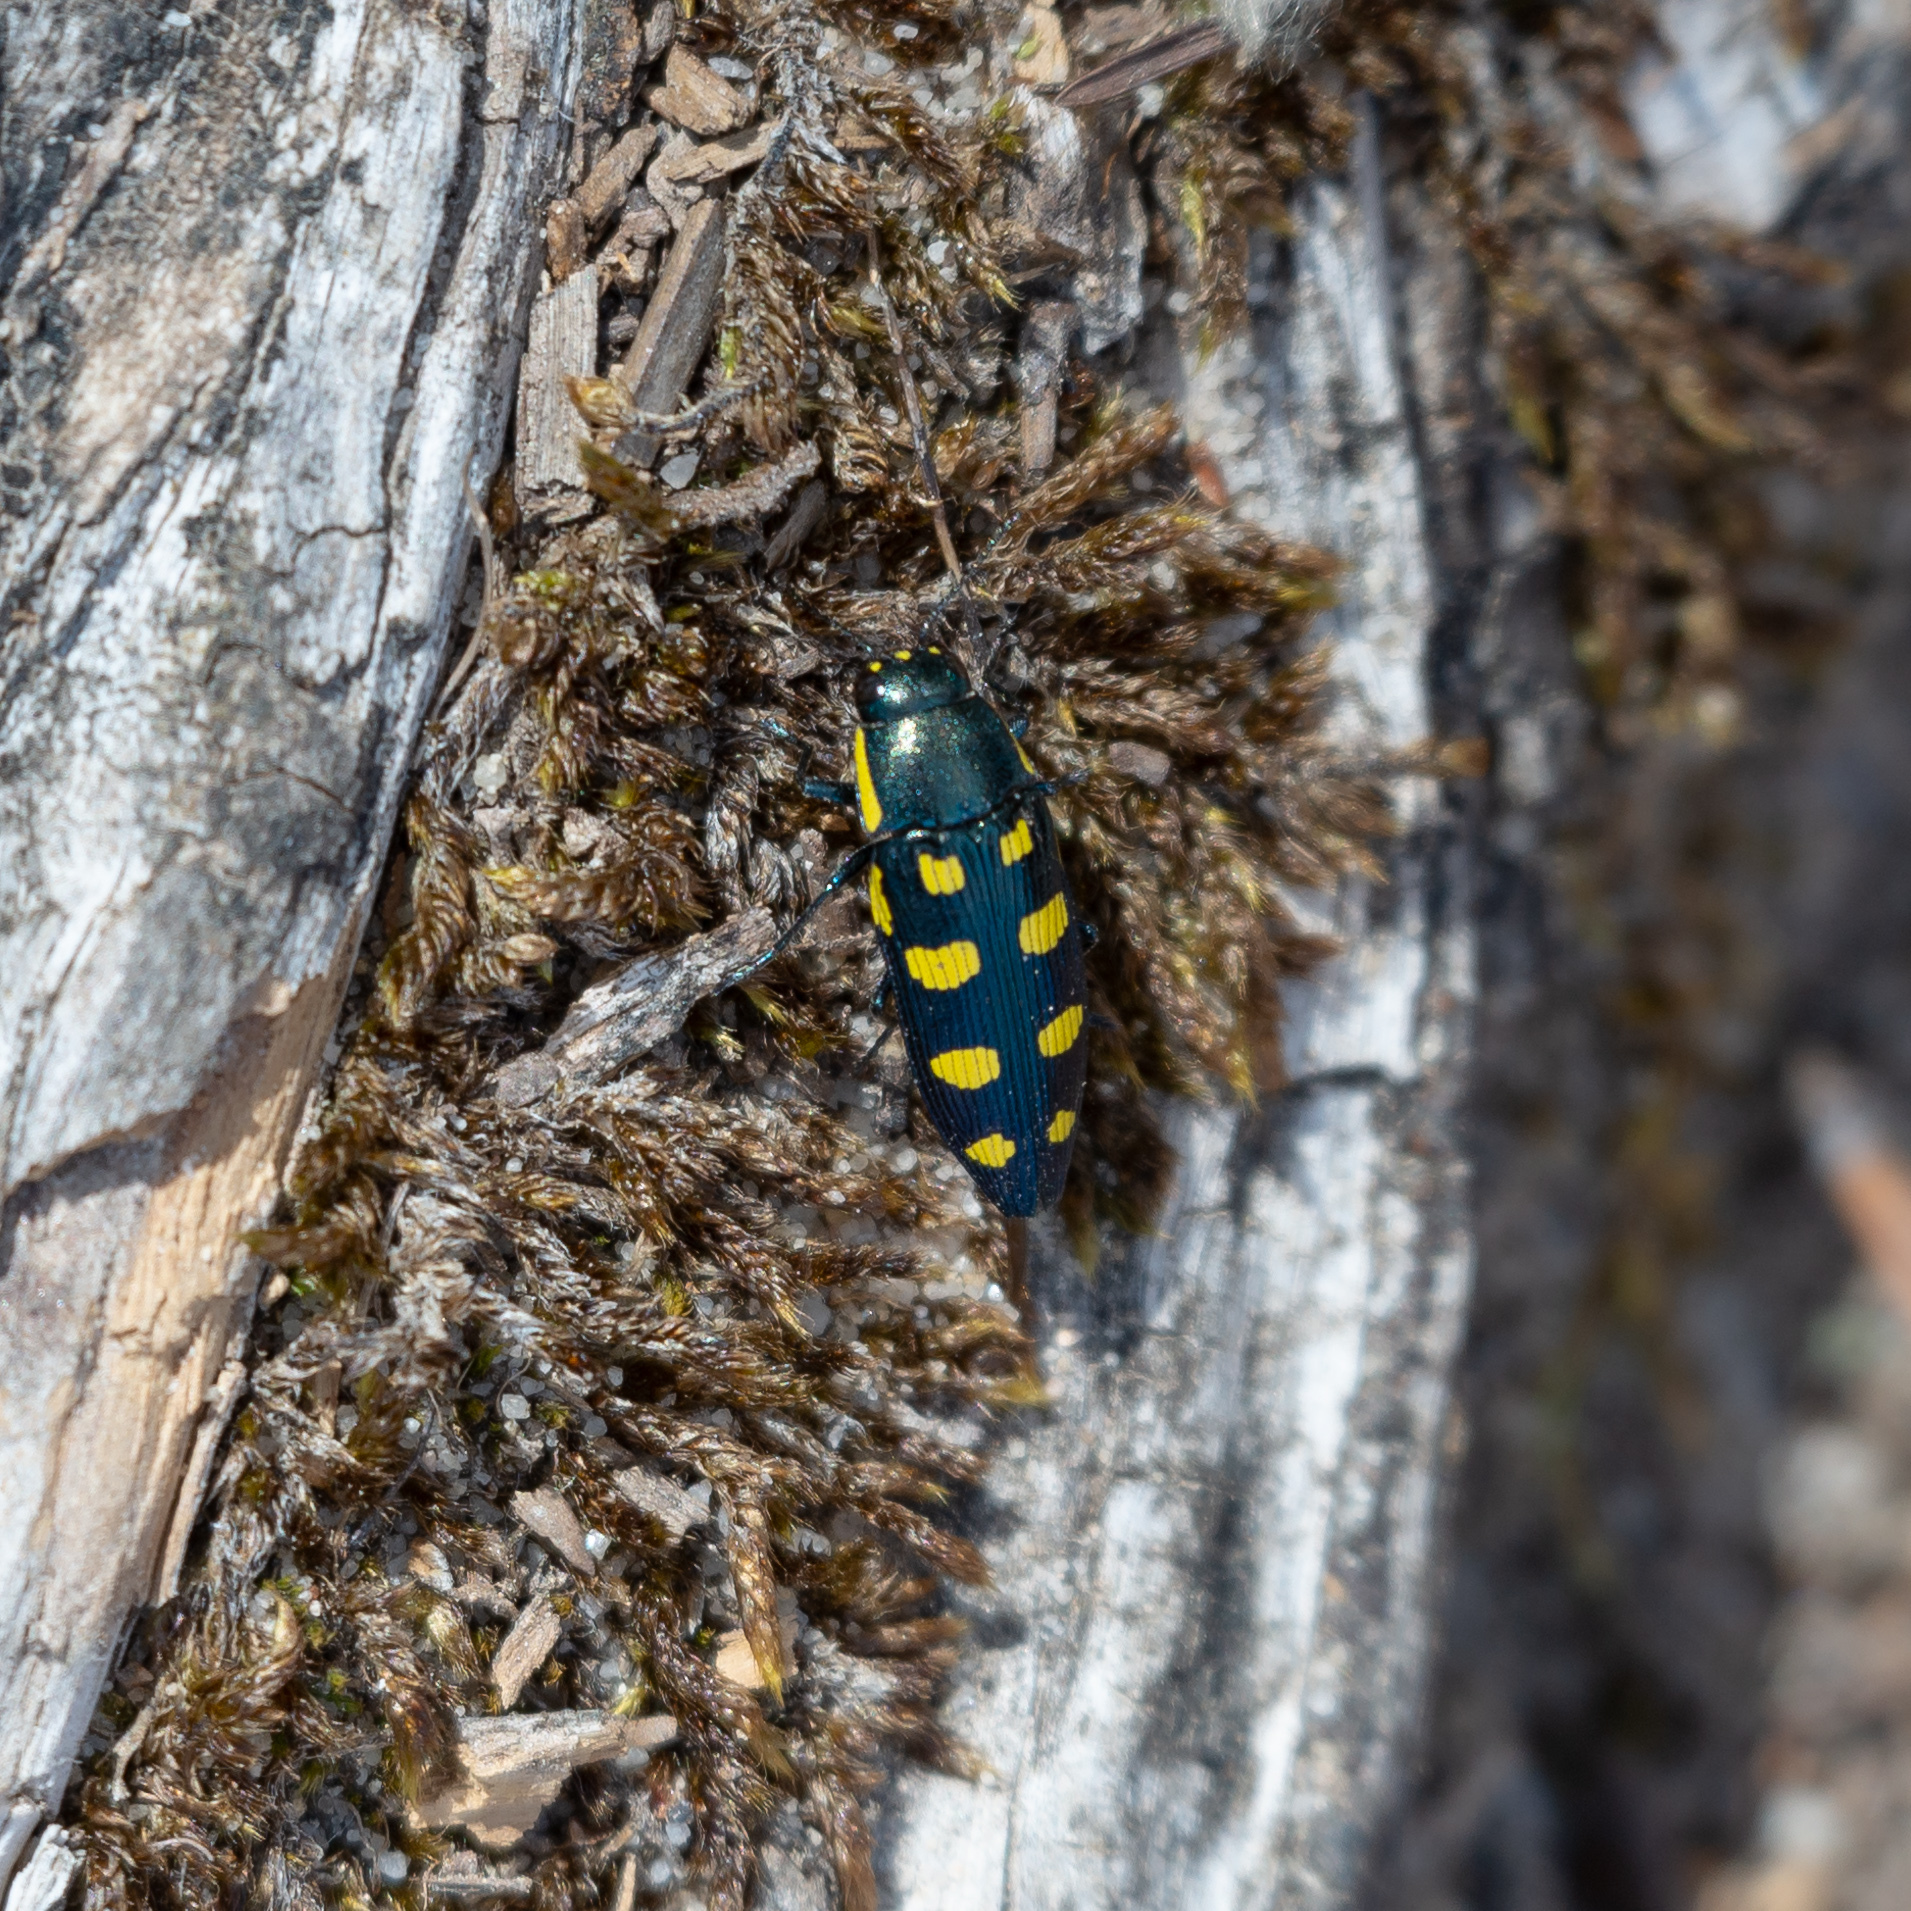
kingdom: Animalia
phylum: Arthropoda
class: Insecta
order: Coleoptera
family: Buprestidae
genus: Buprestis
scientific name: Buprestis octoguttata
